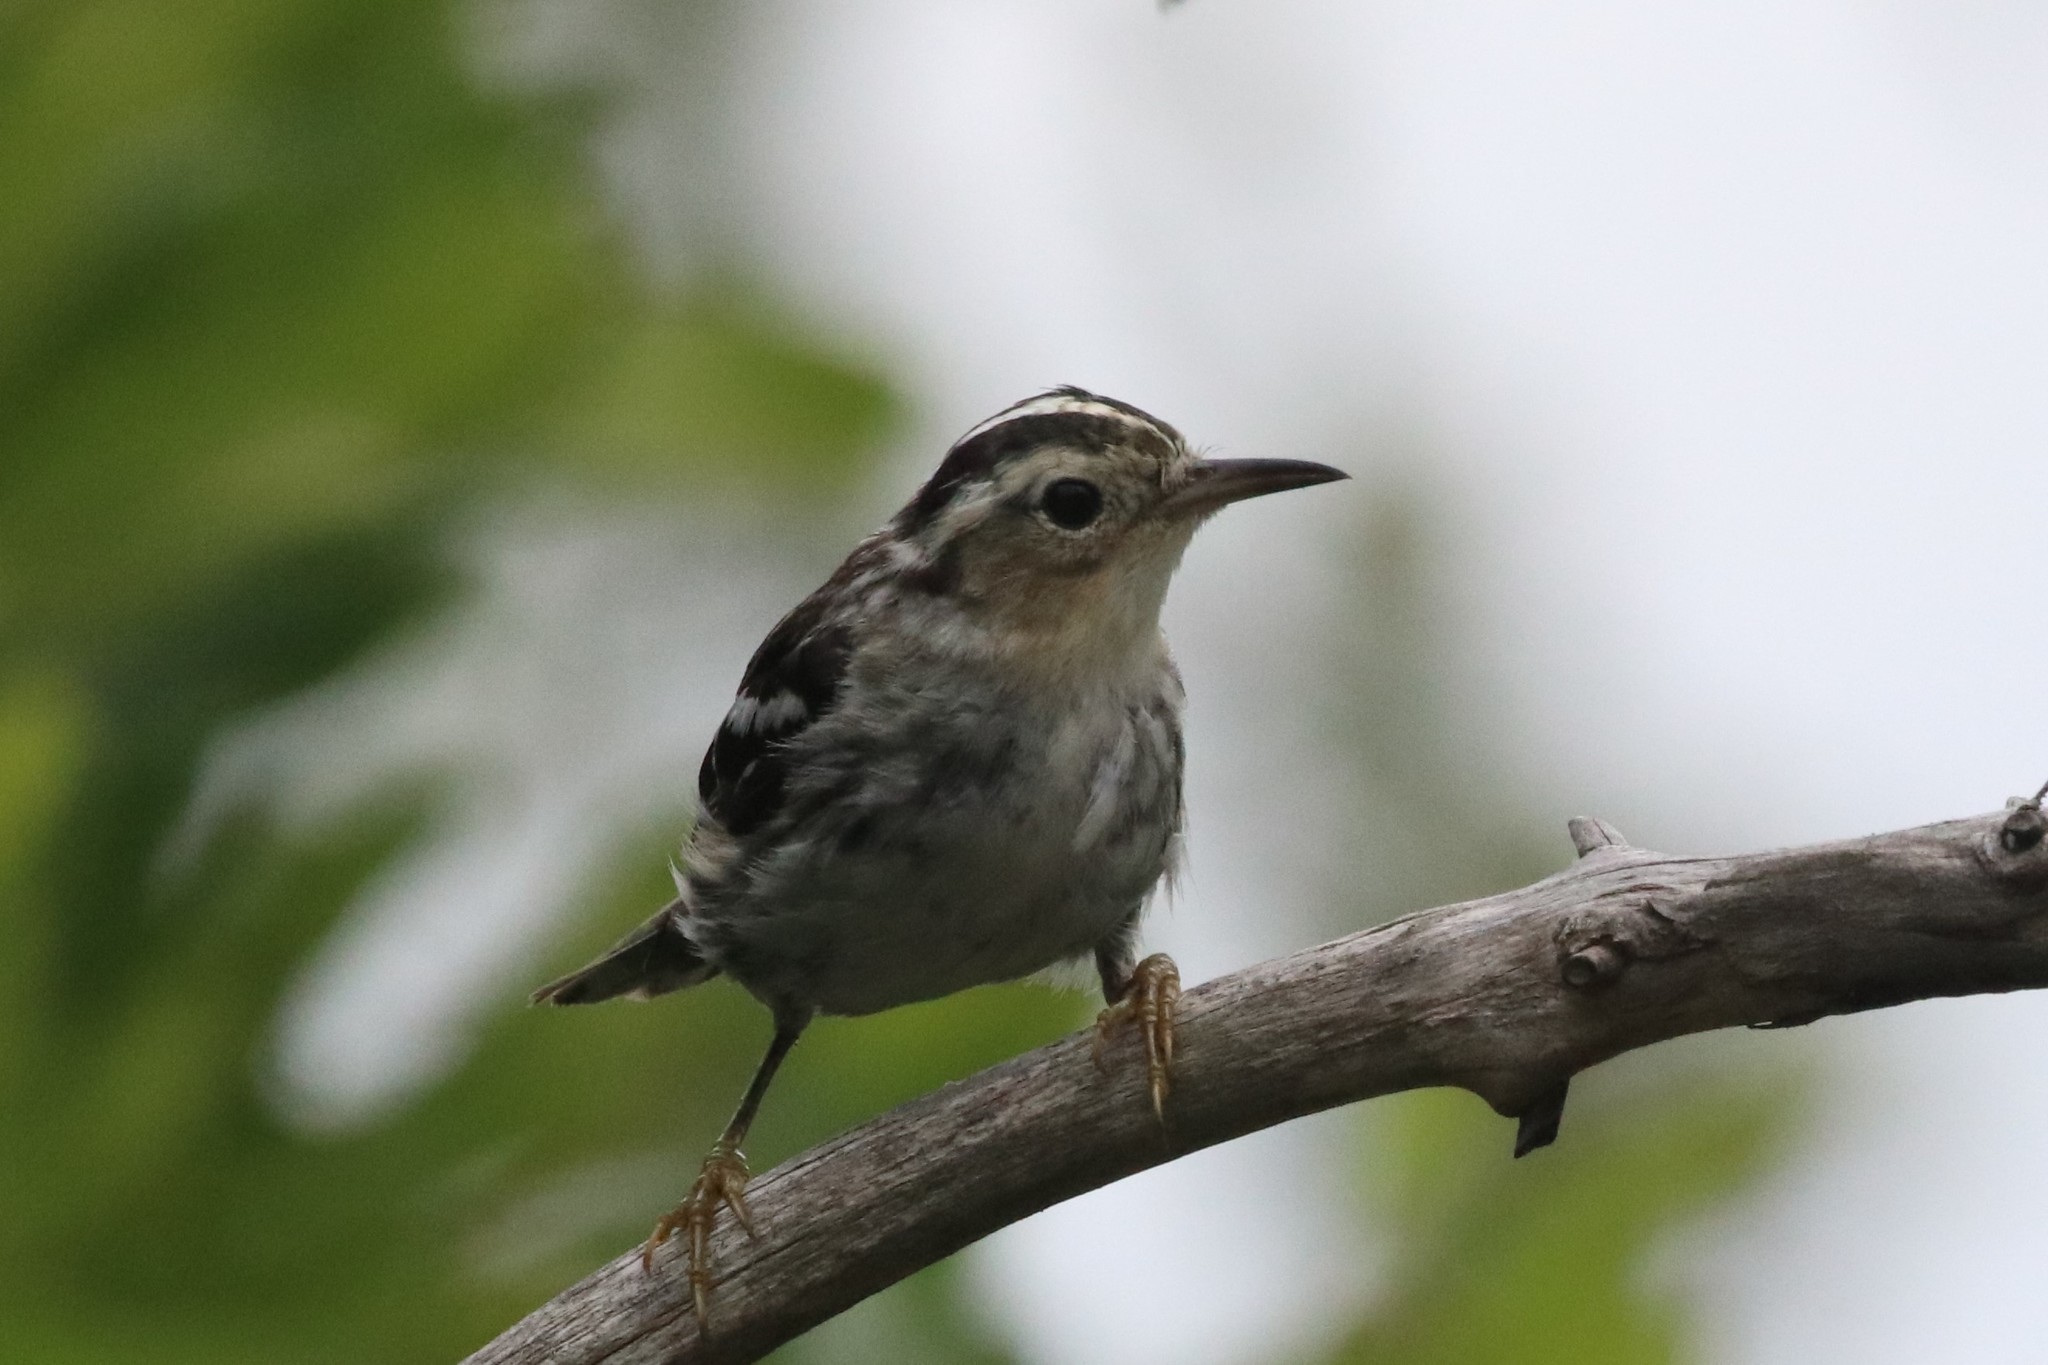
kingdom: Animalia
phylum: Chordata
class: Aves
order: Passeriformes
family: Parulidae
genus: Mniotilta
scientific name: Mniotilta varia
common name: Black-and-white warbler
